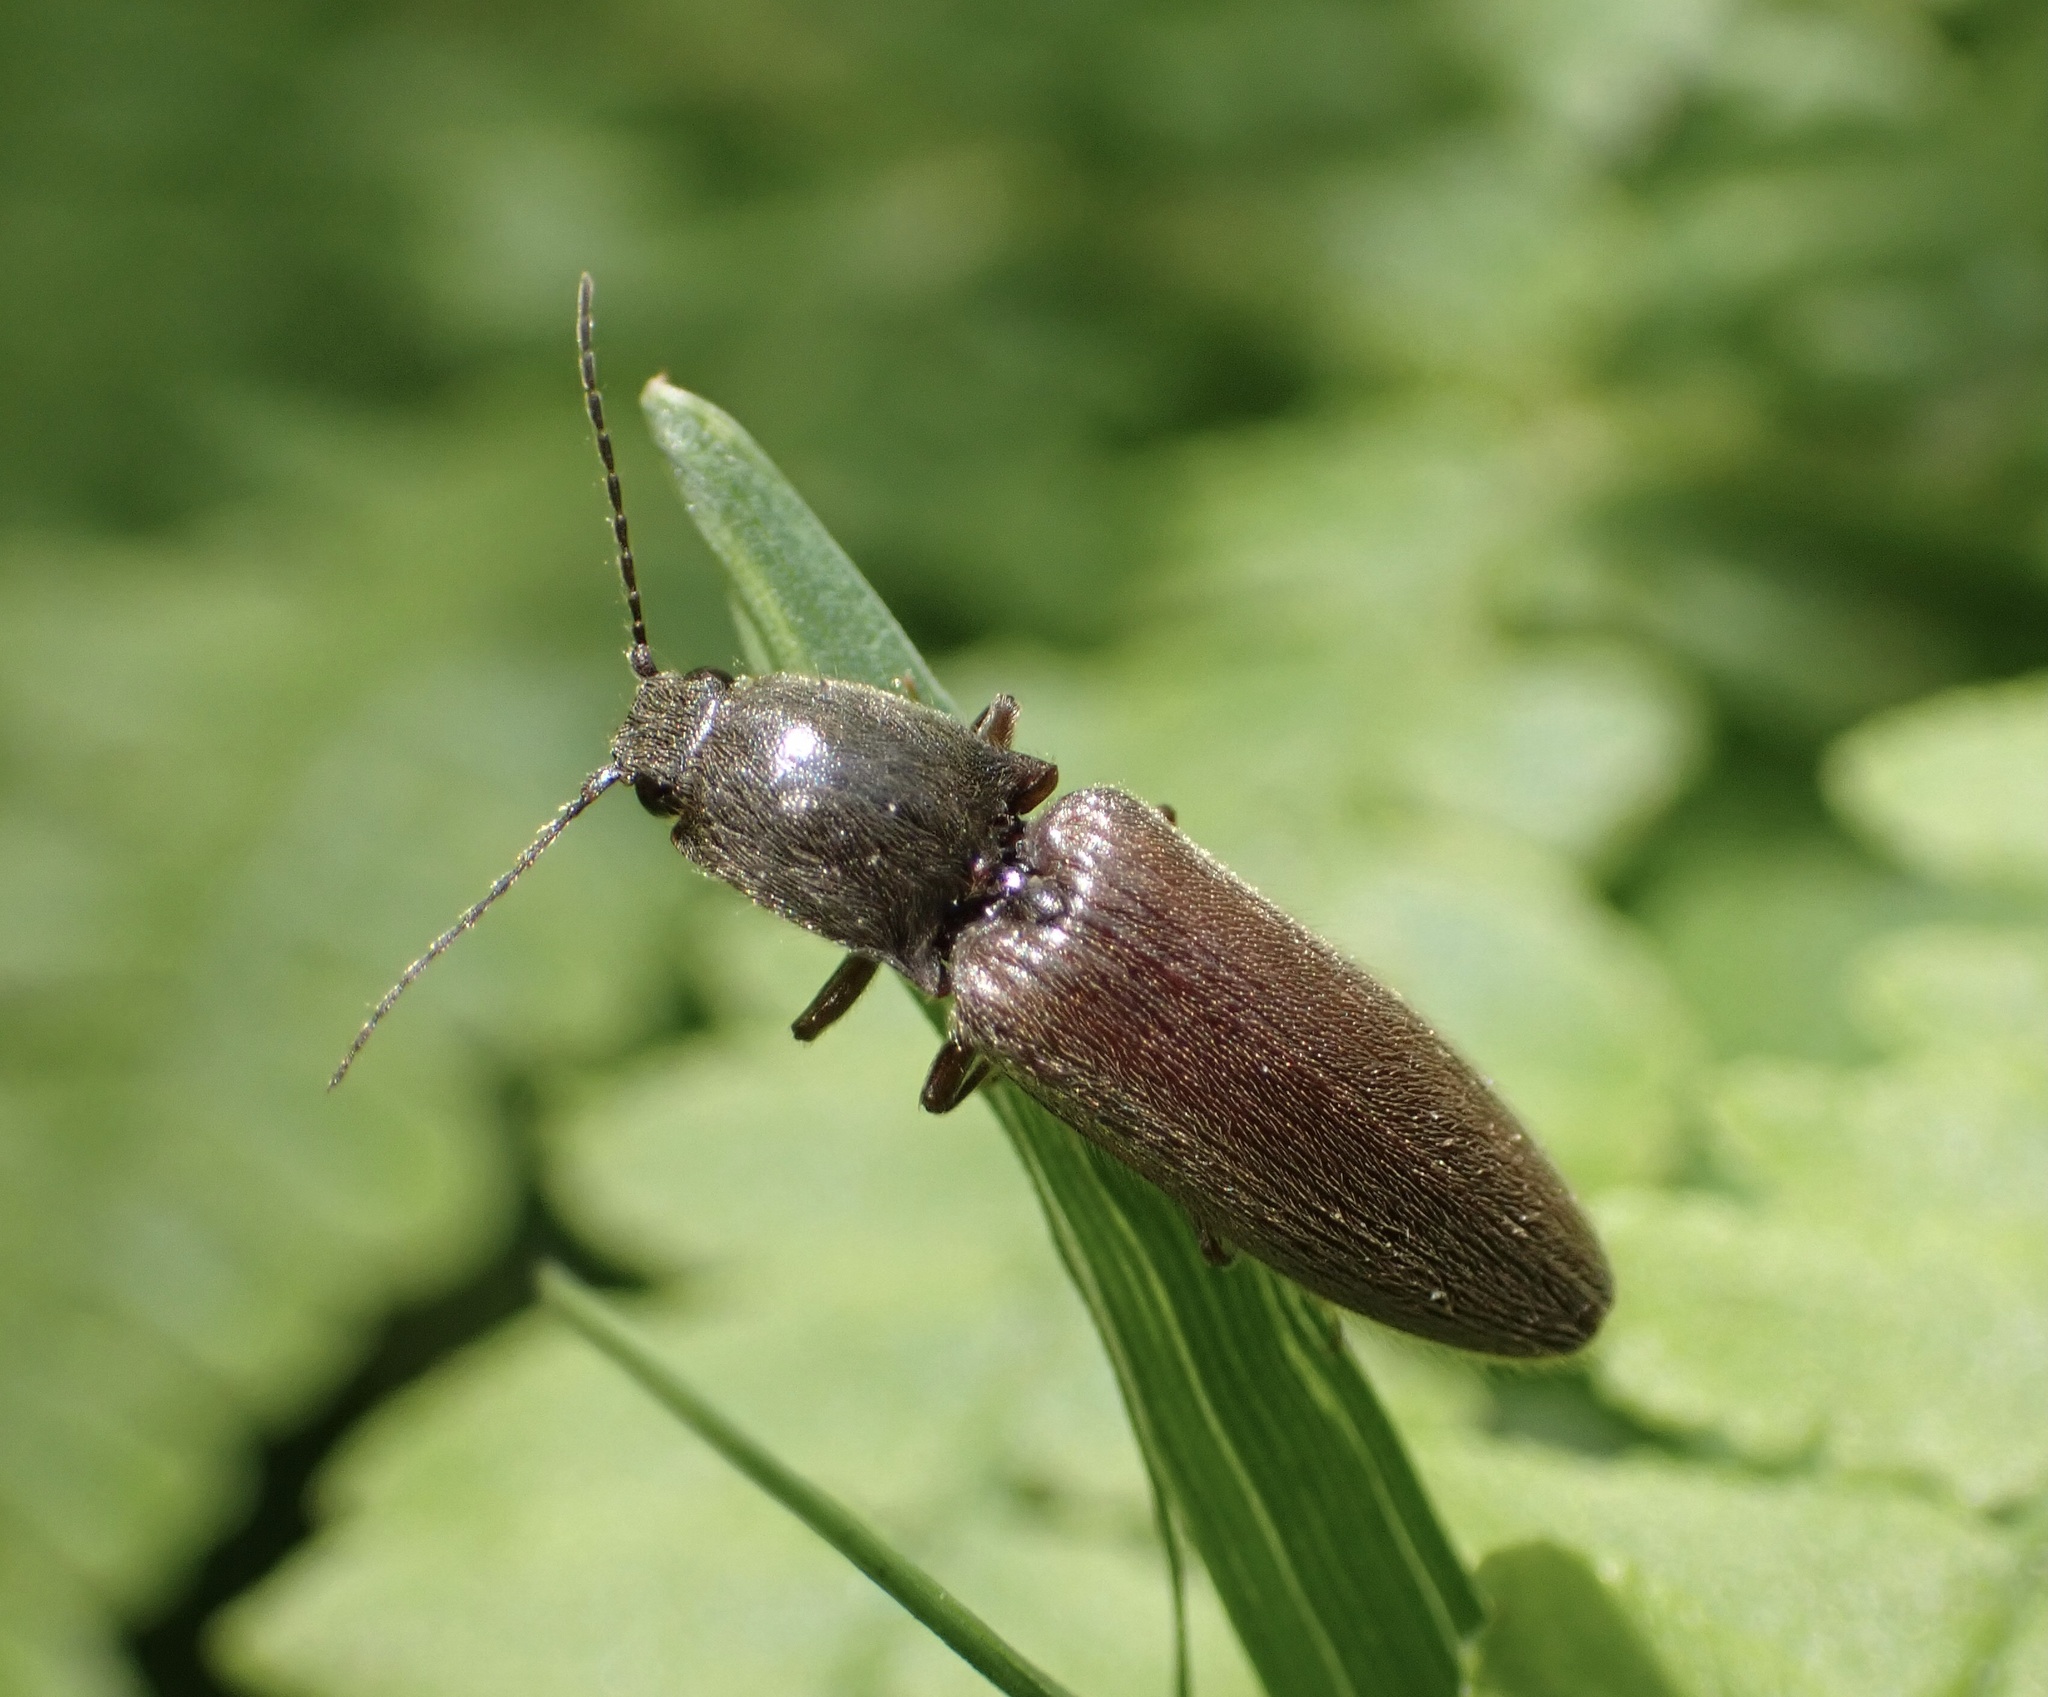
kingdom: Animalia
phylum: Arthropoda
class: Insecta
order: Coleoptera
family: Elateridae
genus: Athous
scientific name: Athous haemorrhoidalis
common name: Red-brown click beetle
